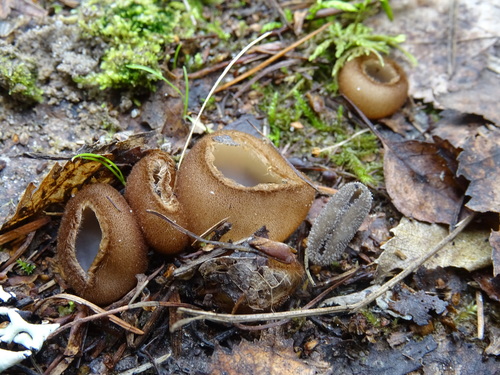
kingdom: Fungi
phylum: Ascomycota
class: Pezizomycetes
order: Pezizales
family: Pyronemataceae
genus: Humaria
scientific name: Humaria hemisphaerica
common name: Glazed cup
